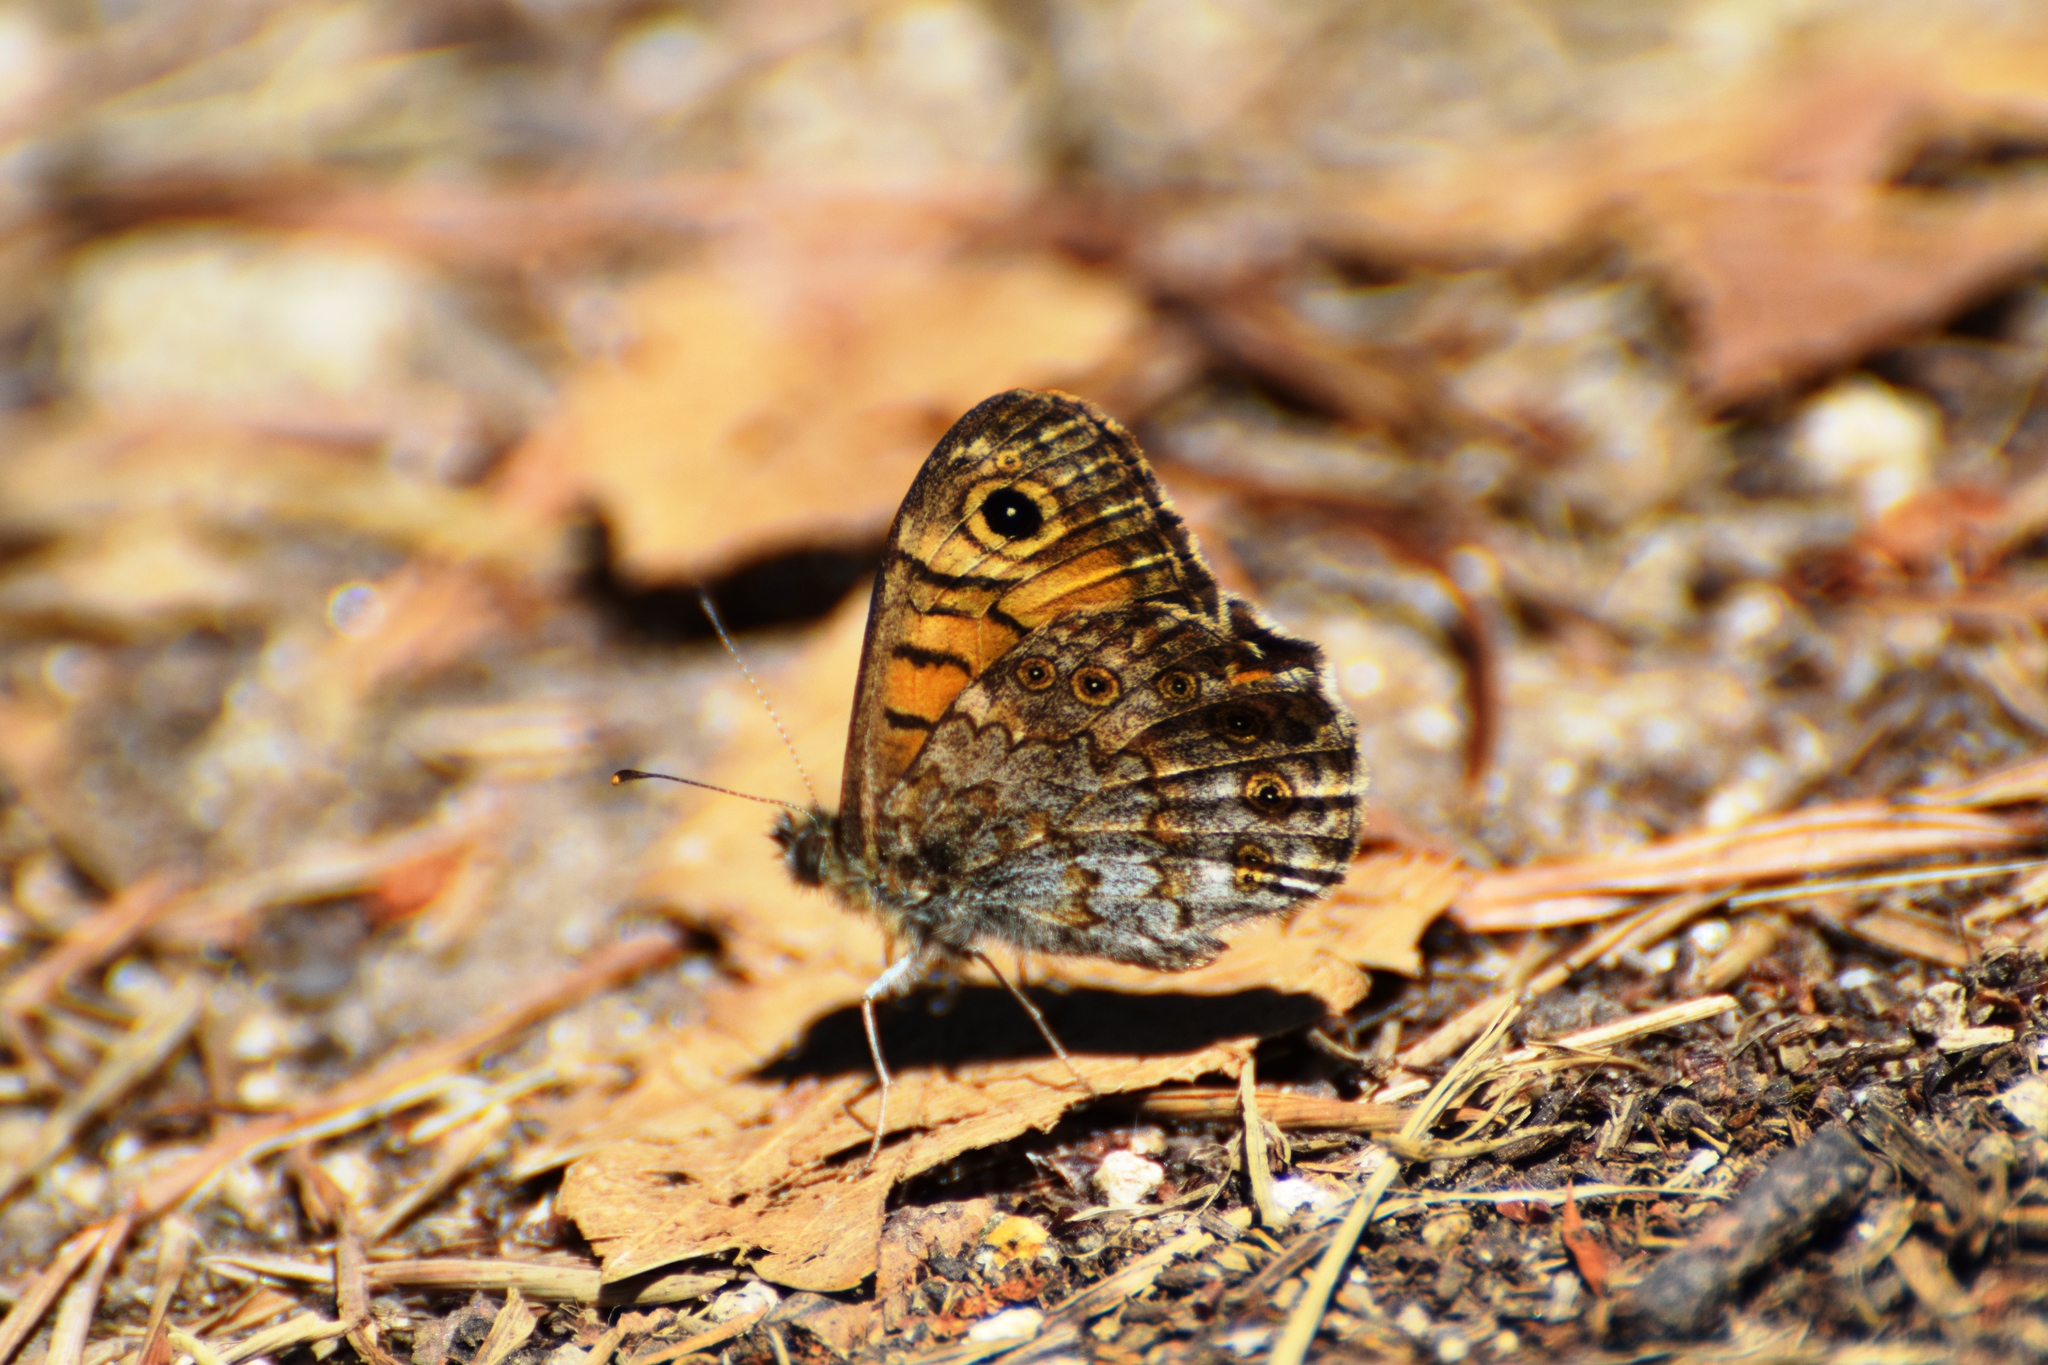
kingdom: Animalia
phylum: Arthropoda
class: Insecta
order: Lepidoptera
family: Nymphalidae
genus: Pararge
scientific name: Pararge Lasiommata megera
